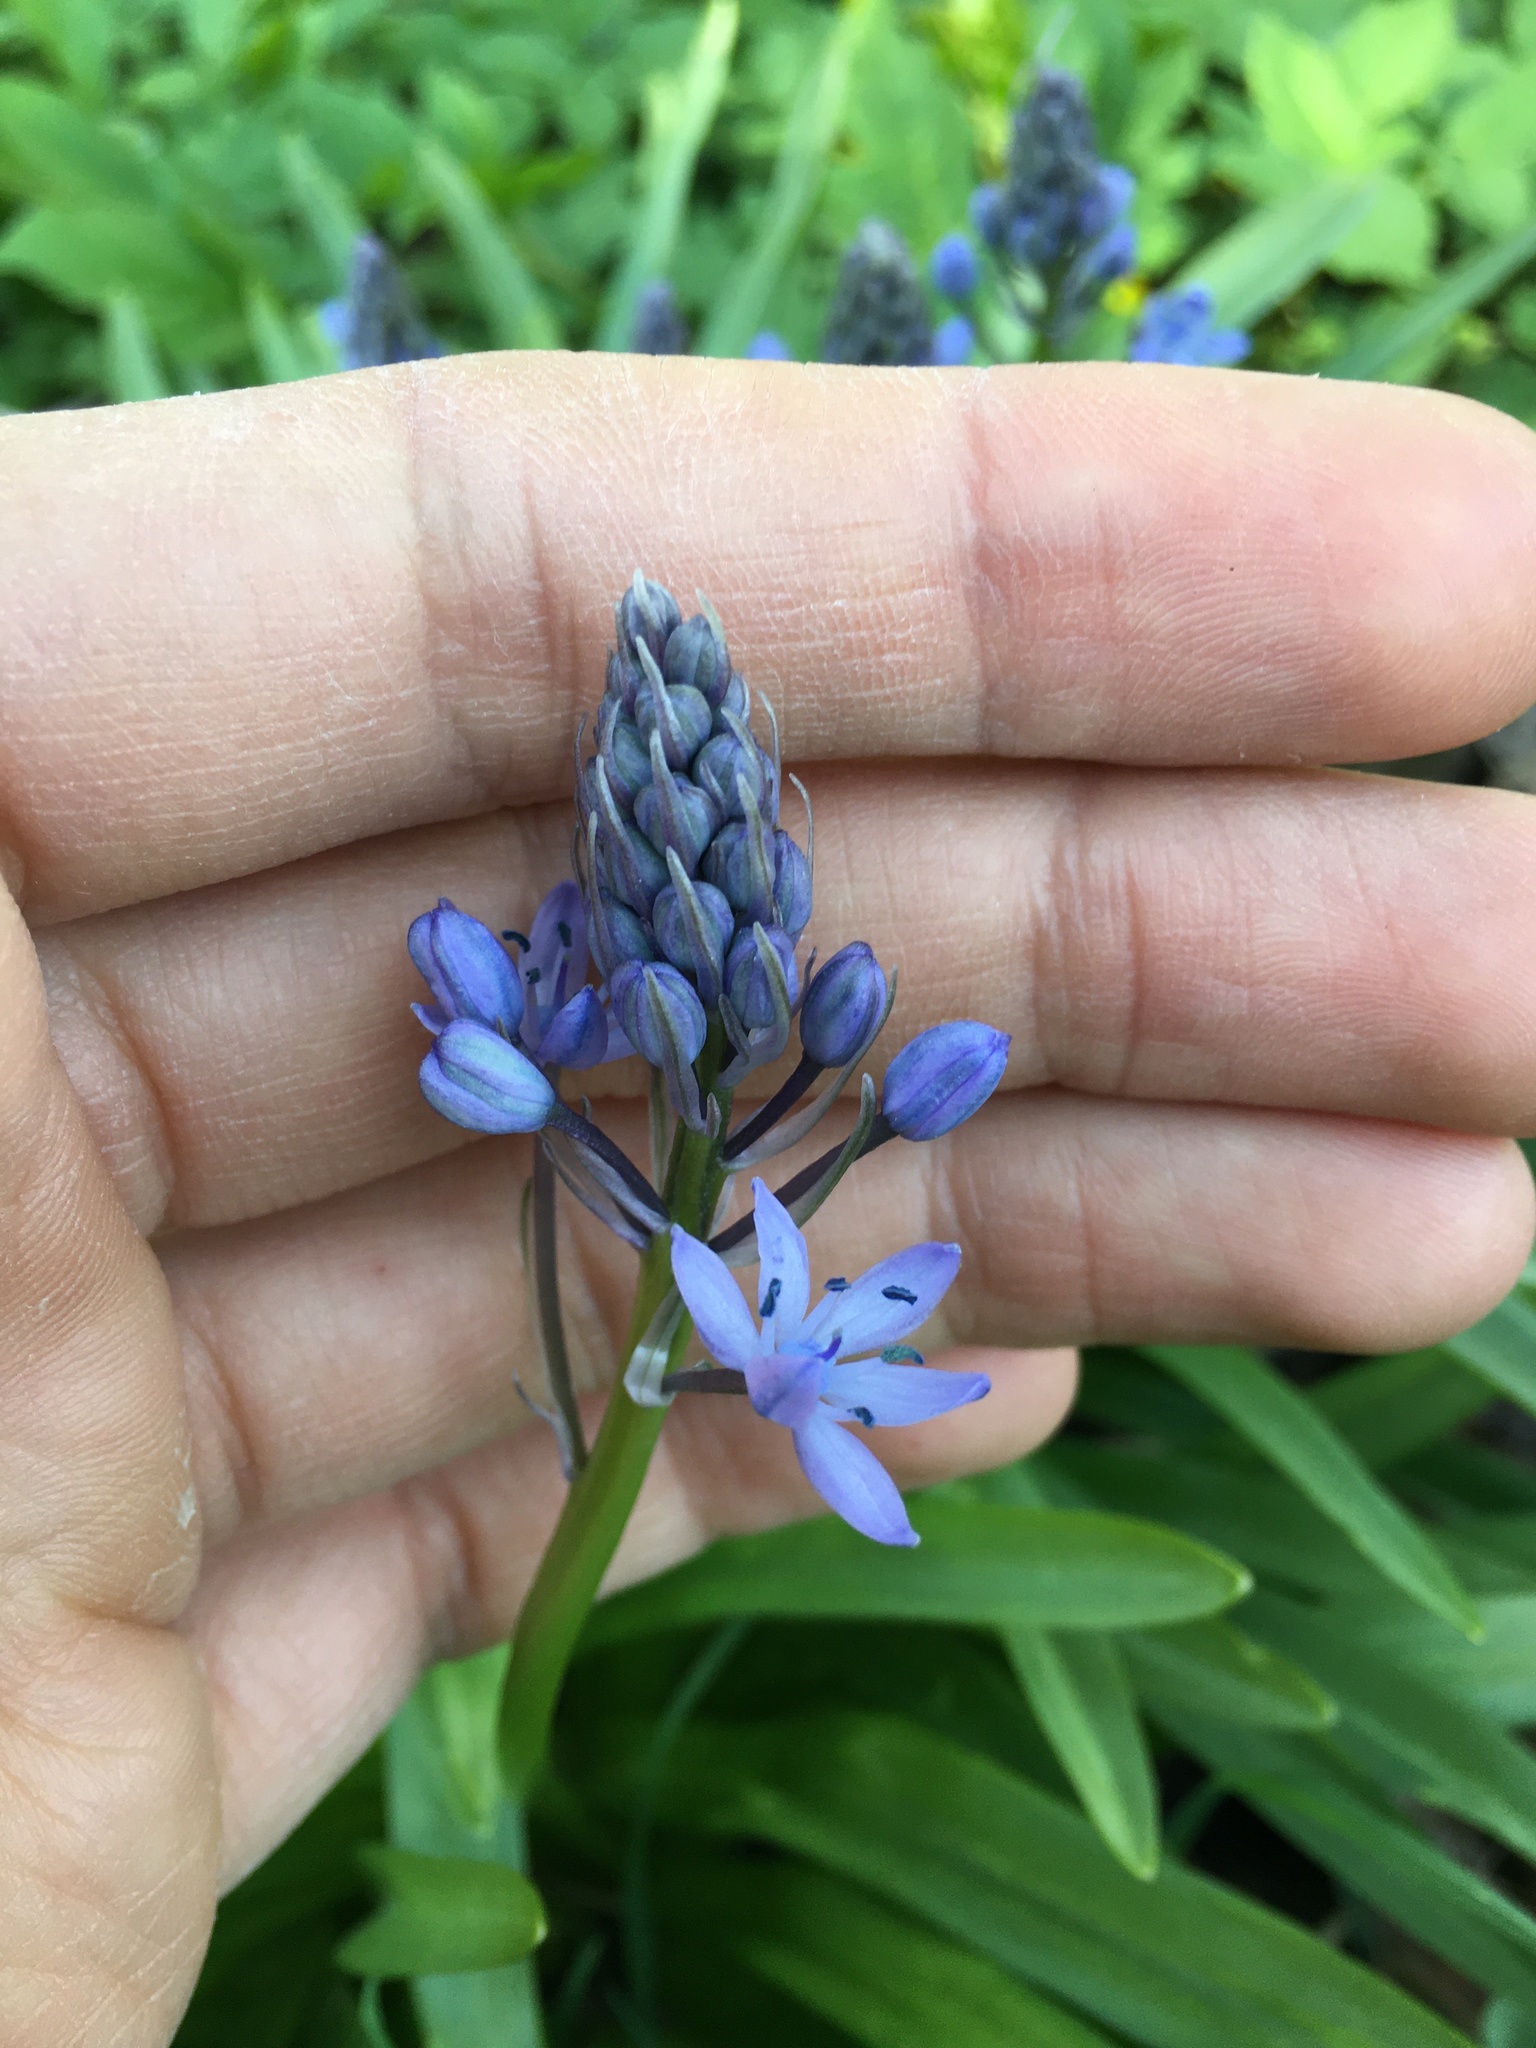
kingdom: Plantae
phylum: Tracheophyta
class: Liliopsida
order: Asparagales
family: Asparagaceae
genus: Hyacinthoides
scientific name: Hyacinthoides italica
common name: Italian bluebell
